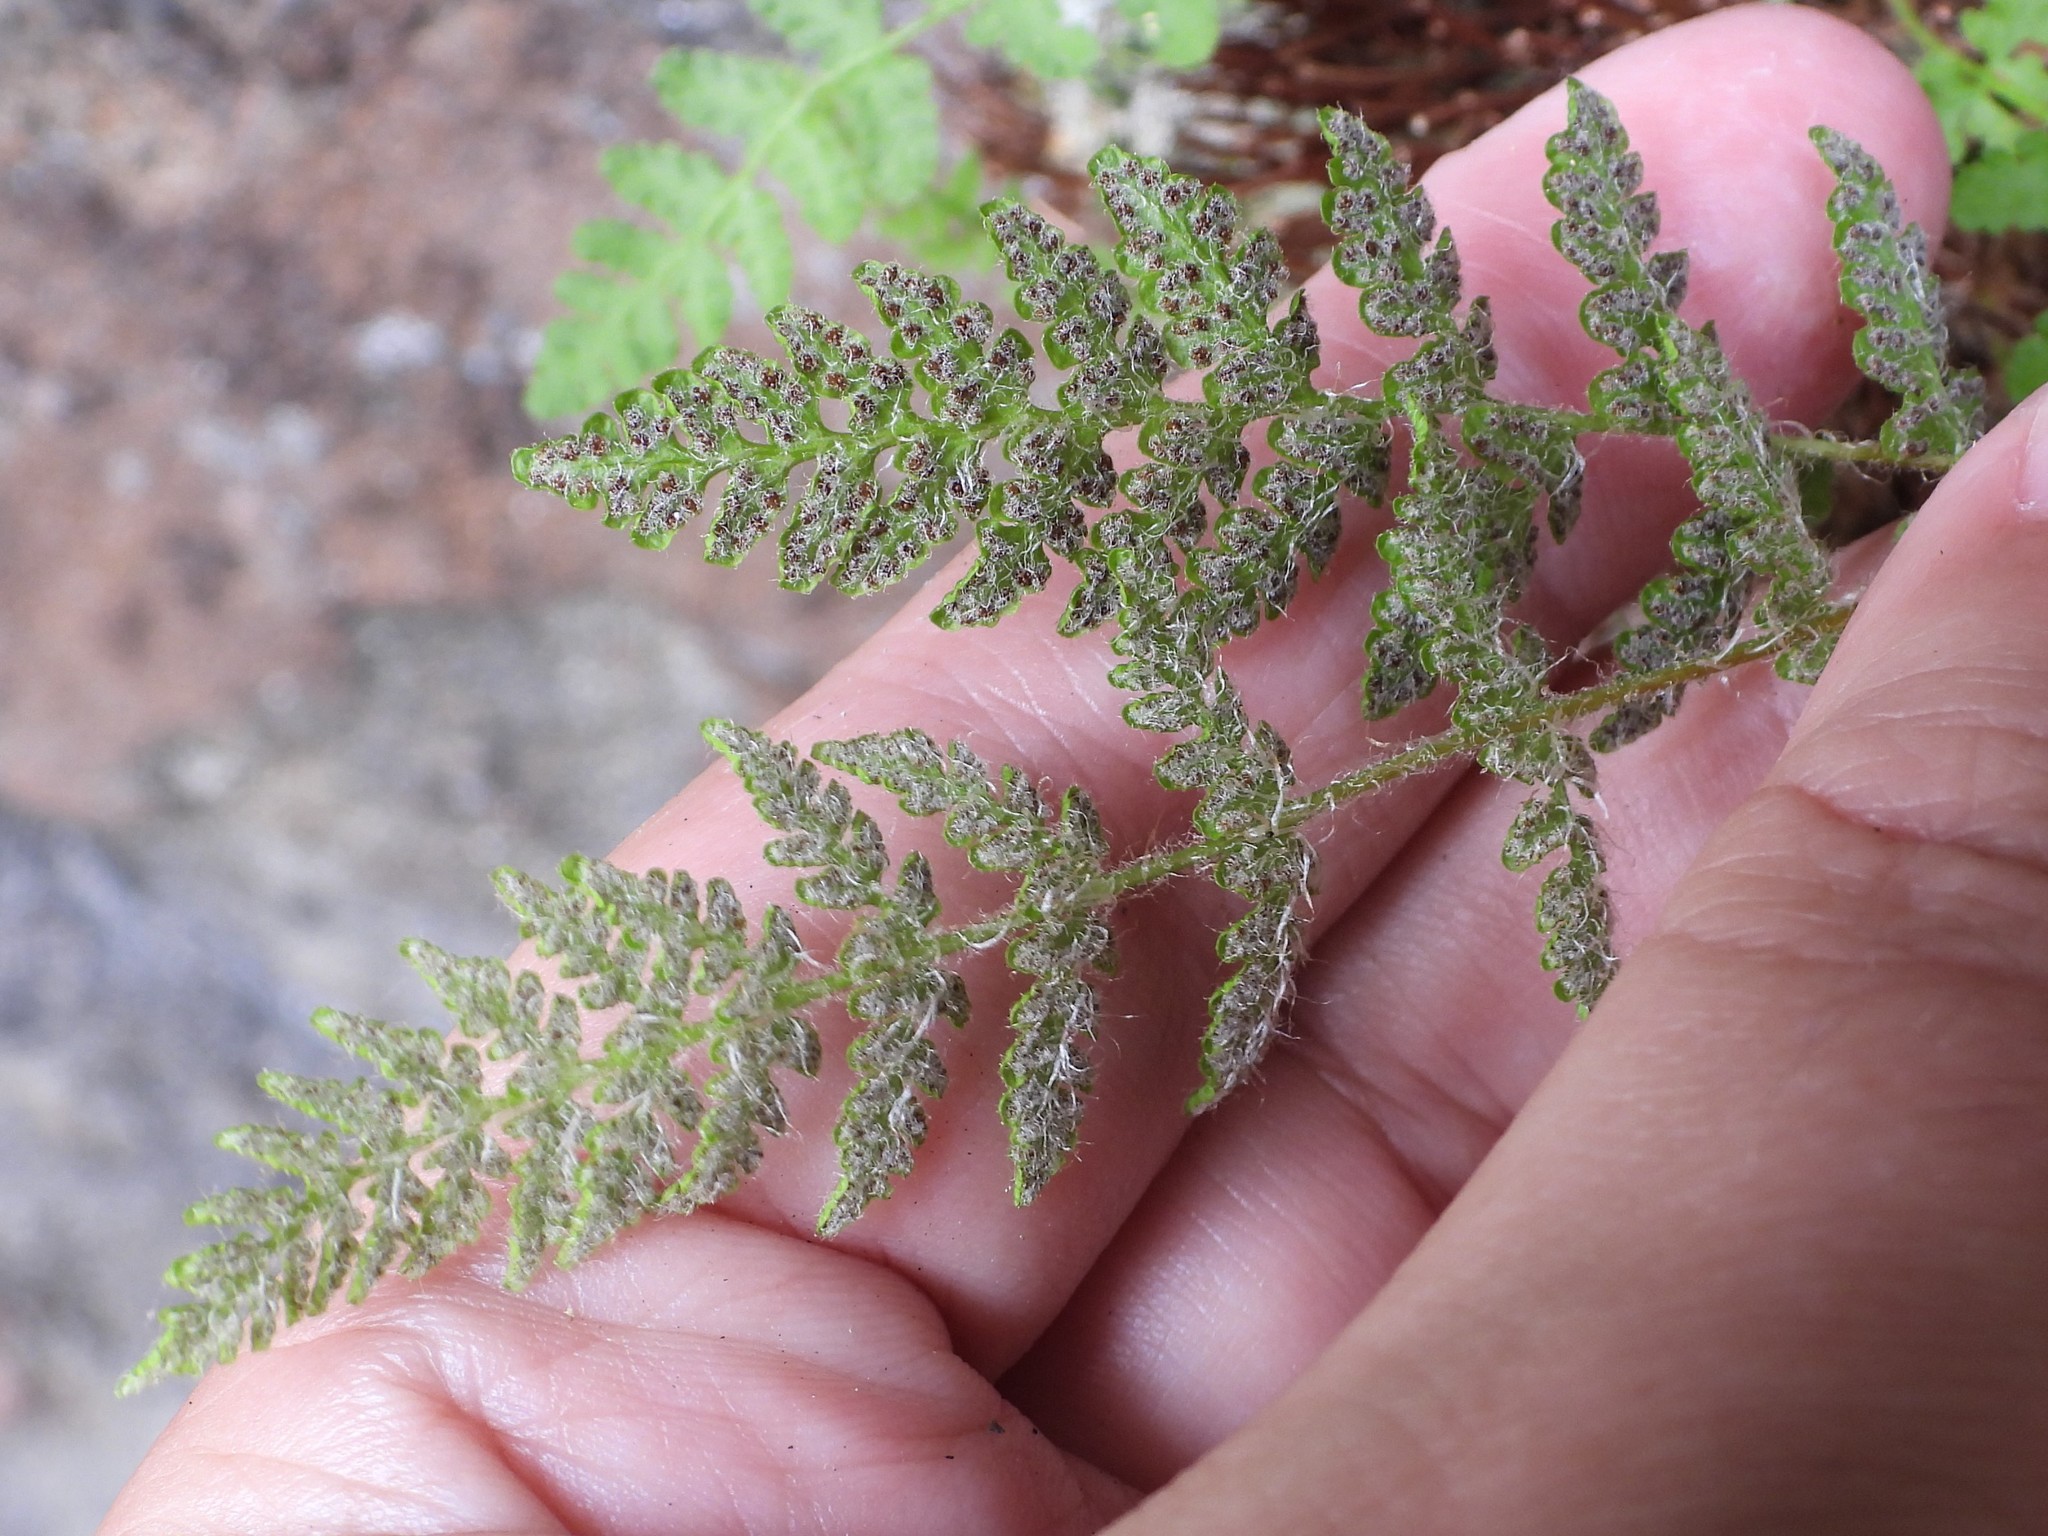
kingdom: Plantae
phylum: Tracheophyta
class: Polypodiopsida
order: Polypodiales
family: Woodsiaceae
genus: Woodsia
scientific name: Woodsia ilvensis
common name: Fragrant woodsia
